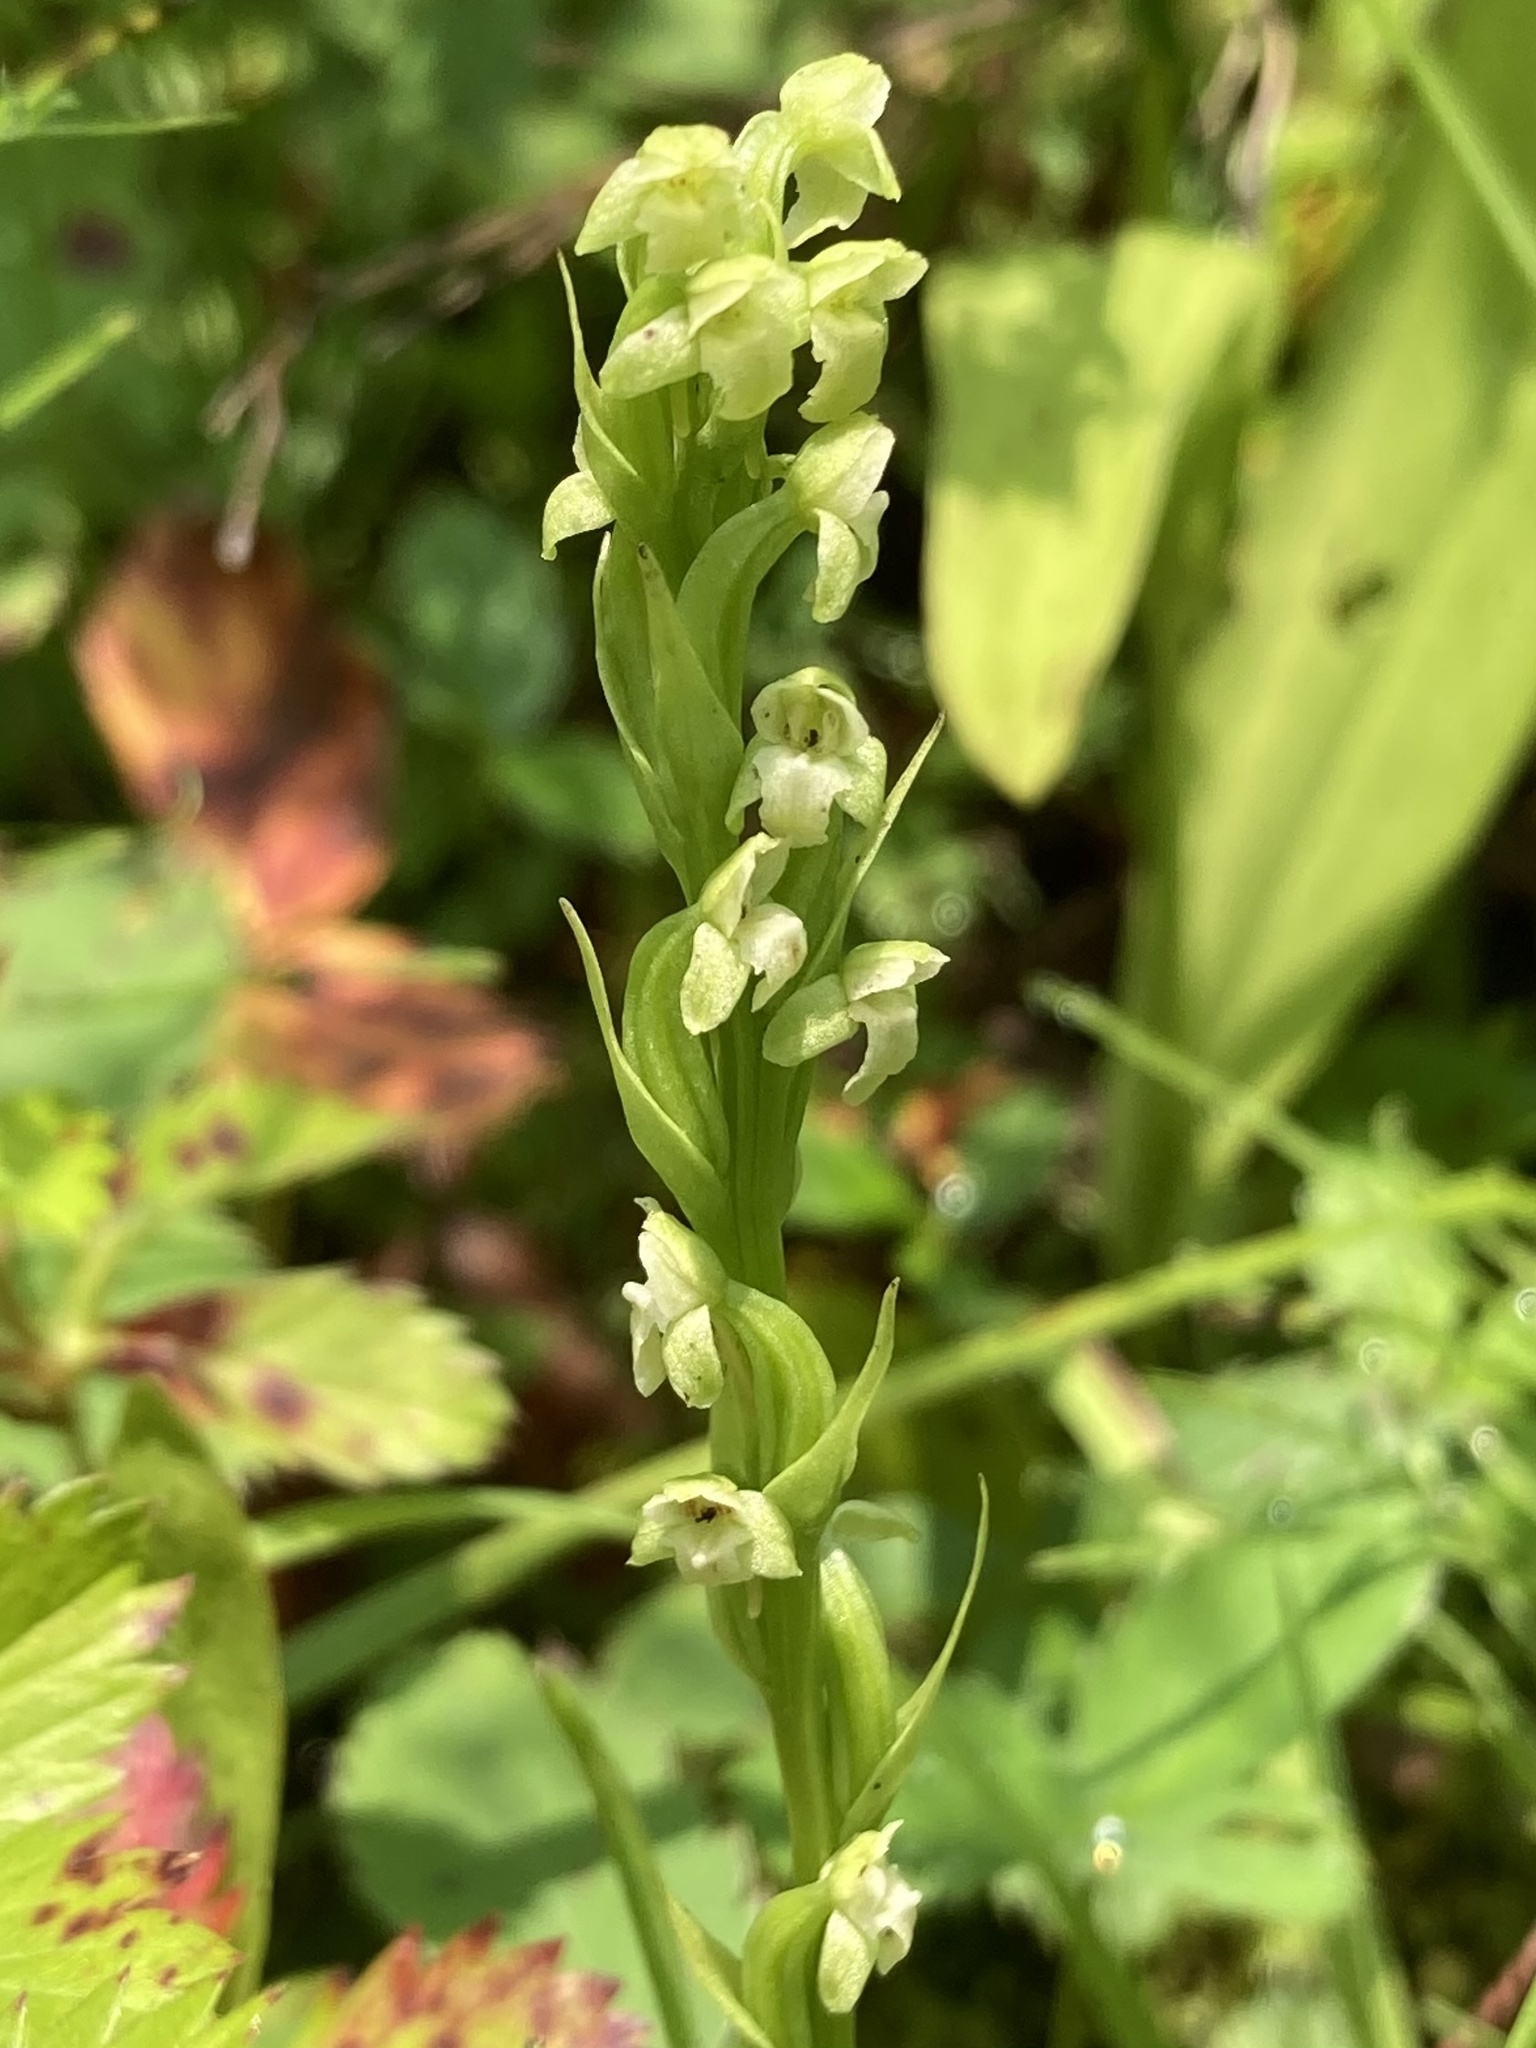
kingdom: Plantae
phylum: Tracheophyta
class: Liliopsida
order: Asparagales
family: Orchidaceae
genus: Platanthera
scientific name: Platanthera flava
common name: Gypsy-spikes
